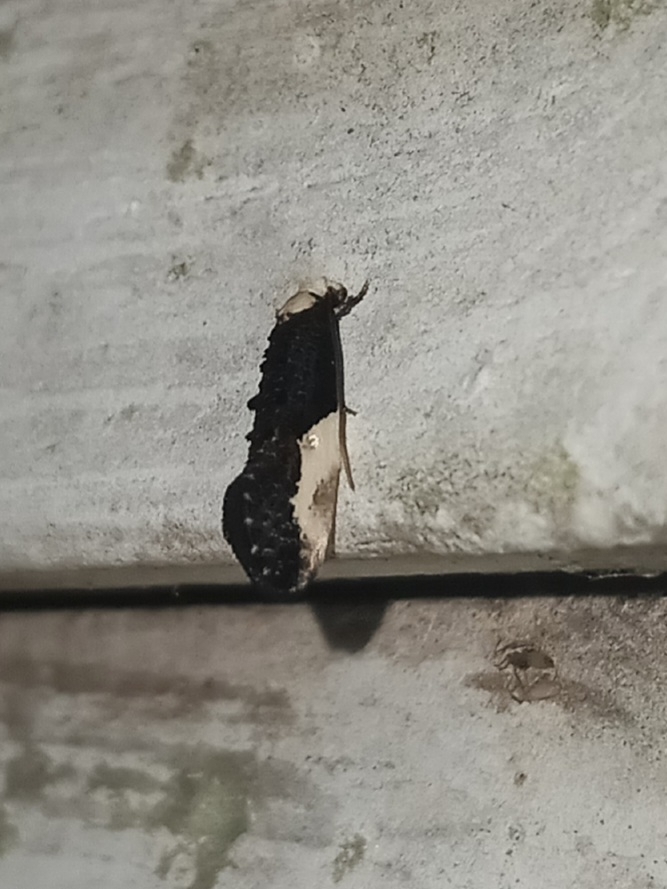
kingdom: Animalia
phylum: Arthropoda
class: Insecta
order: Lepidoptera
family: Tineidae
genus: Monopis
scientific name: Monopis longella
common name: Pavlovski's monopis moth
